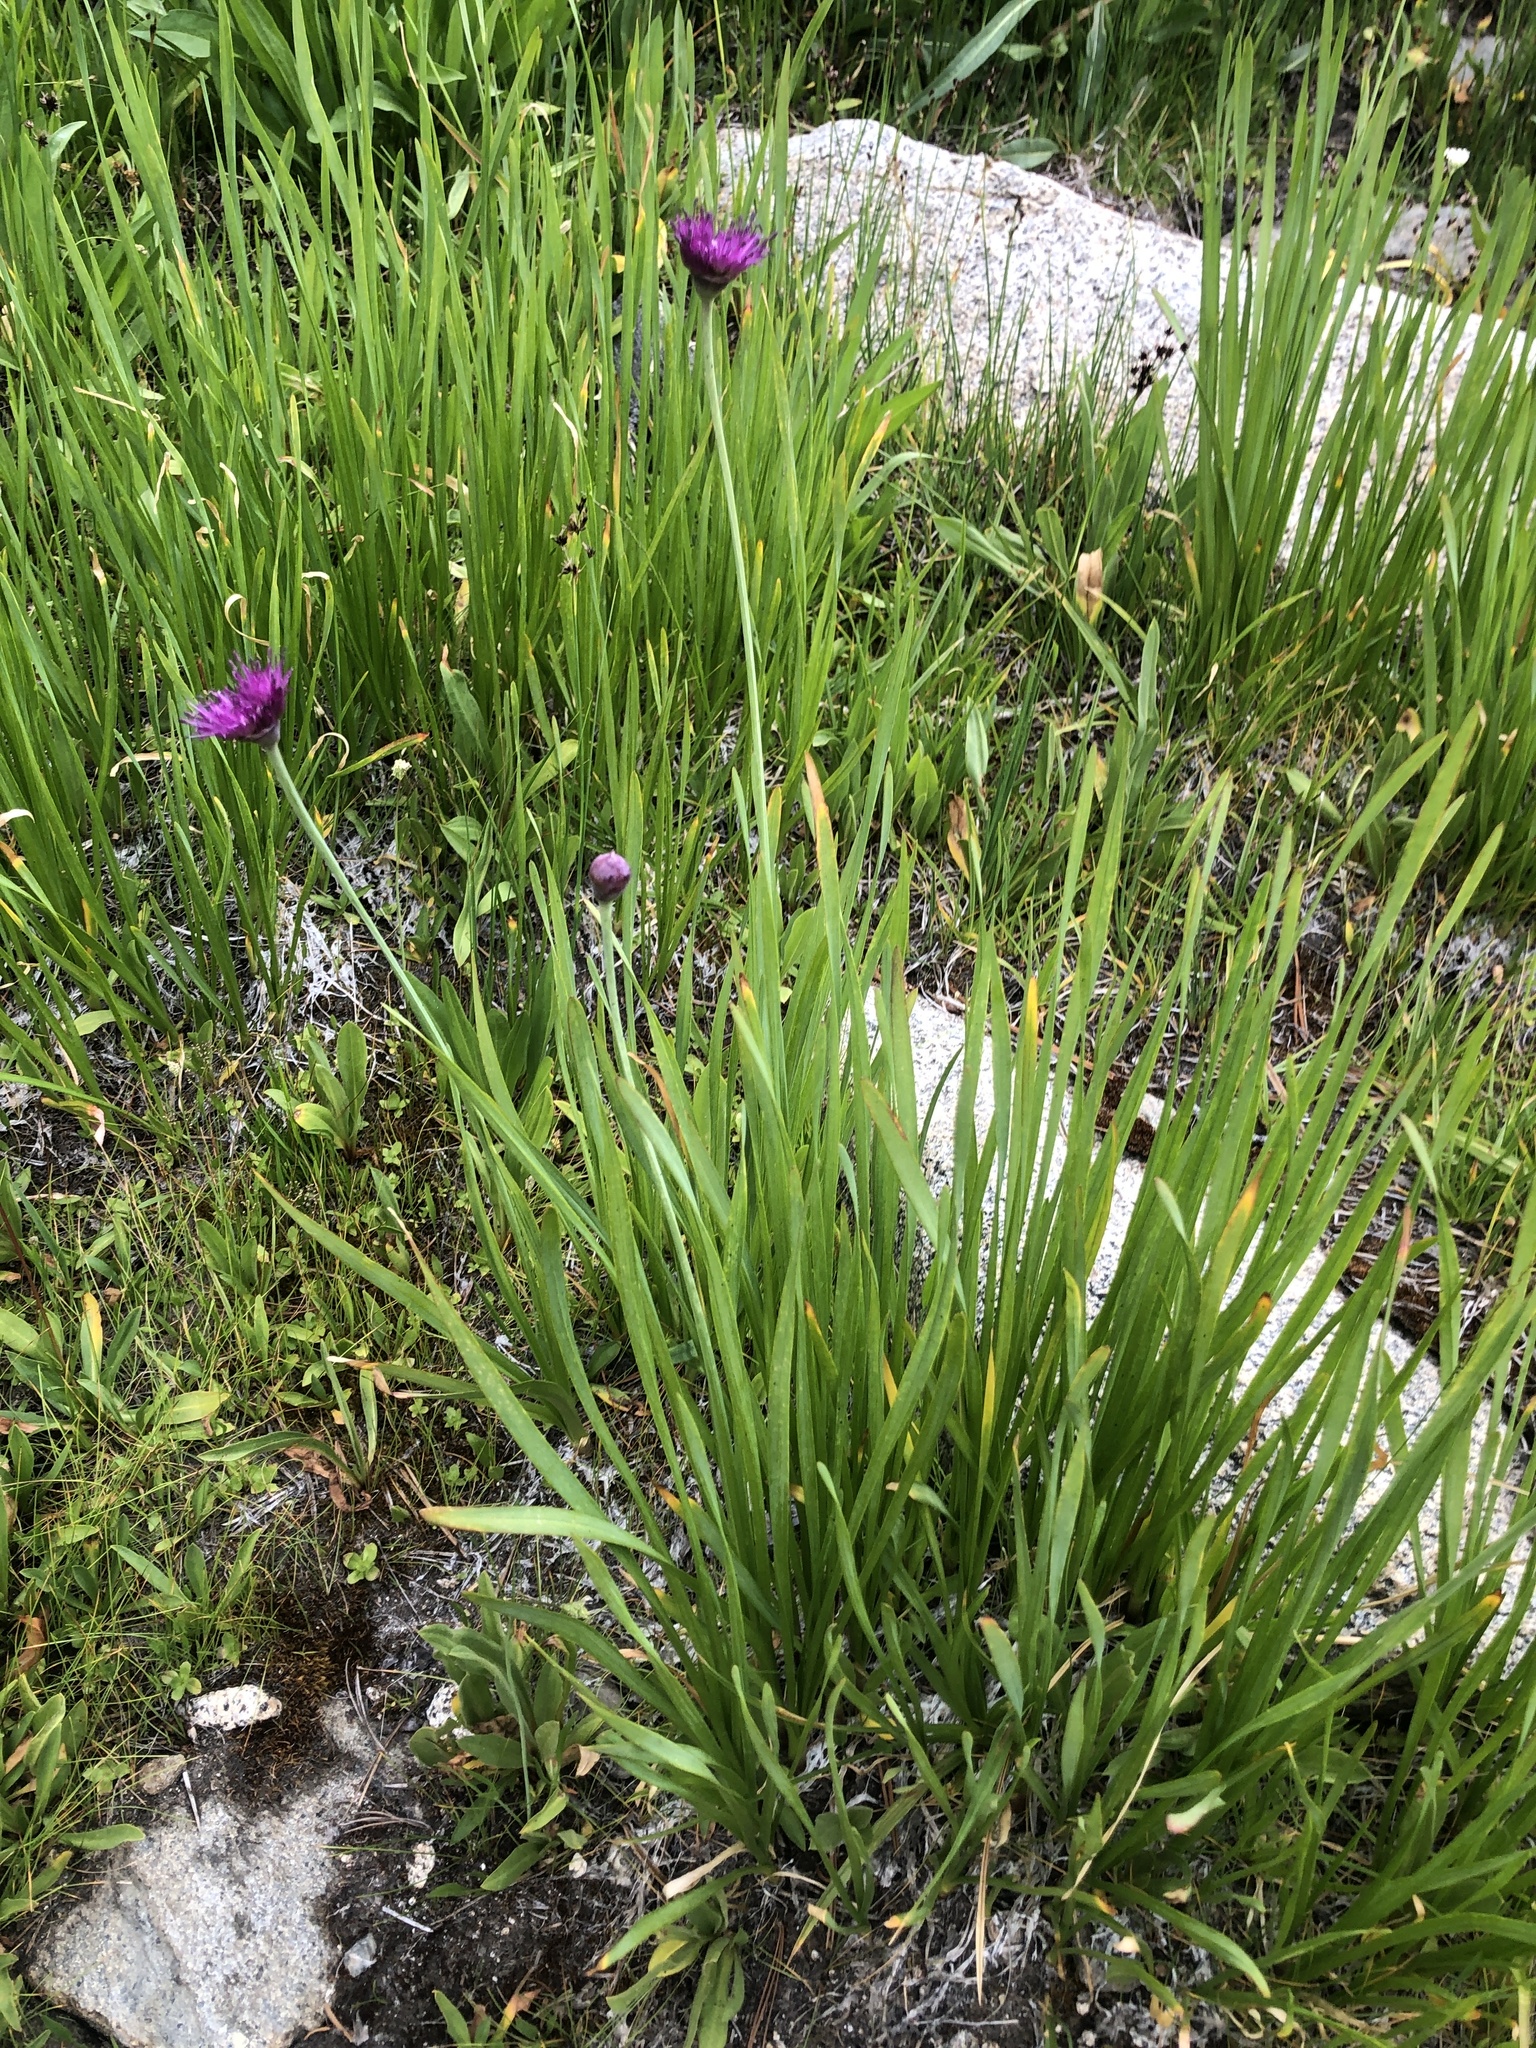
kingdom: Plantae
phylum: Tracheophyta
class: Liliopsida
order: Asparagales
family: Amaryllidaceae
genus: Allium
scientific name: Allium validum
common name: Pacific mountain onion
